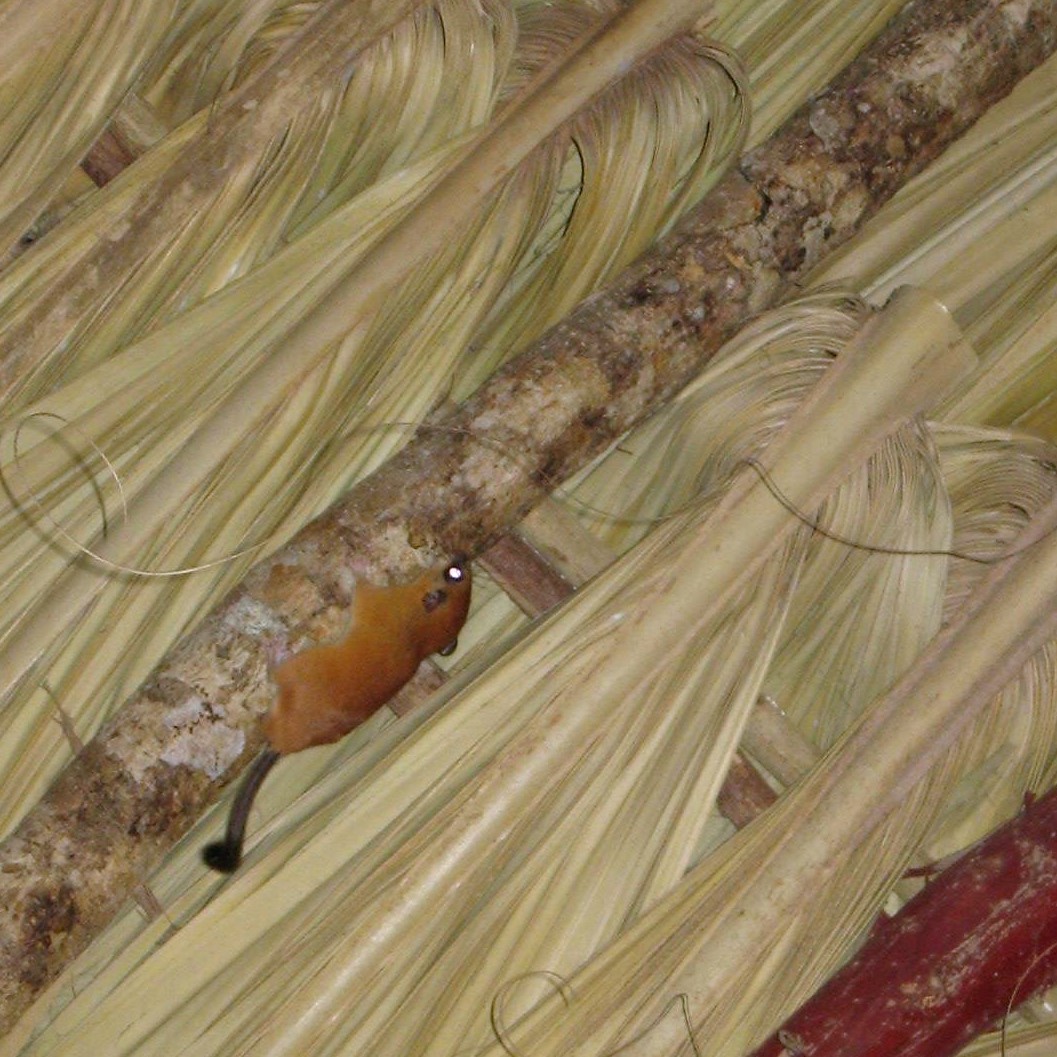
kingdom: Animalia
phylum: Chordata
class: Mammalia
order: Rodentia
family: Cricetidae
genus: Otonyctomys
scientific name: Otonyctomys hatti
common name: Hatt's vesper rat
